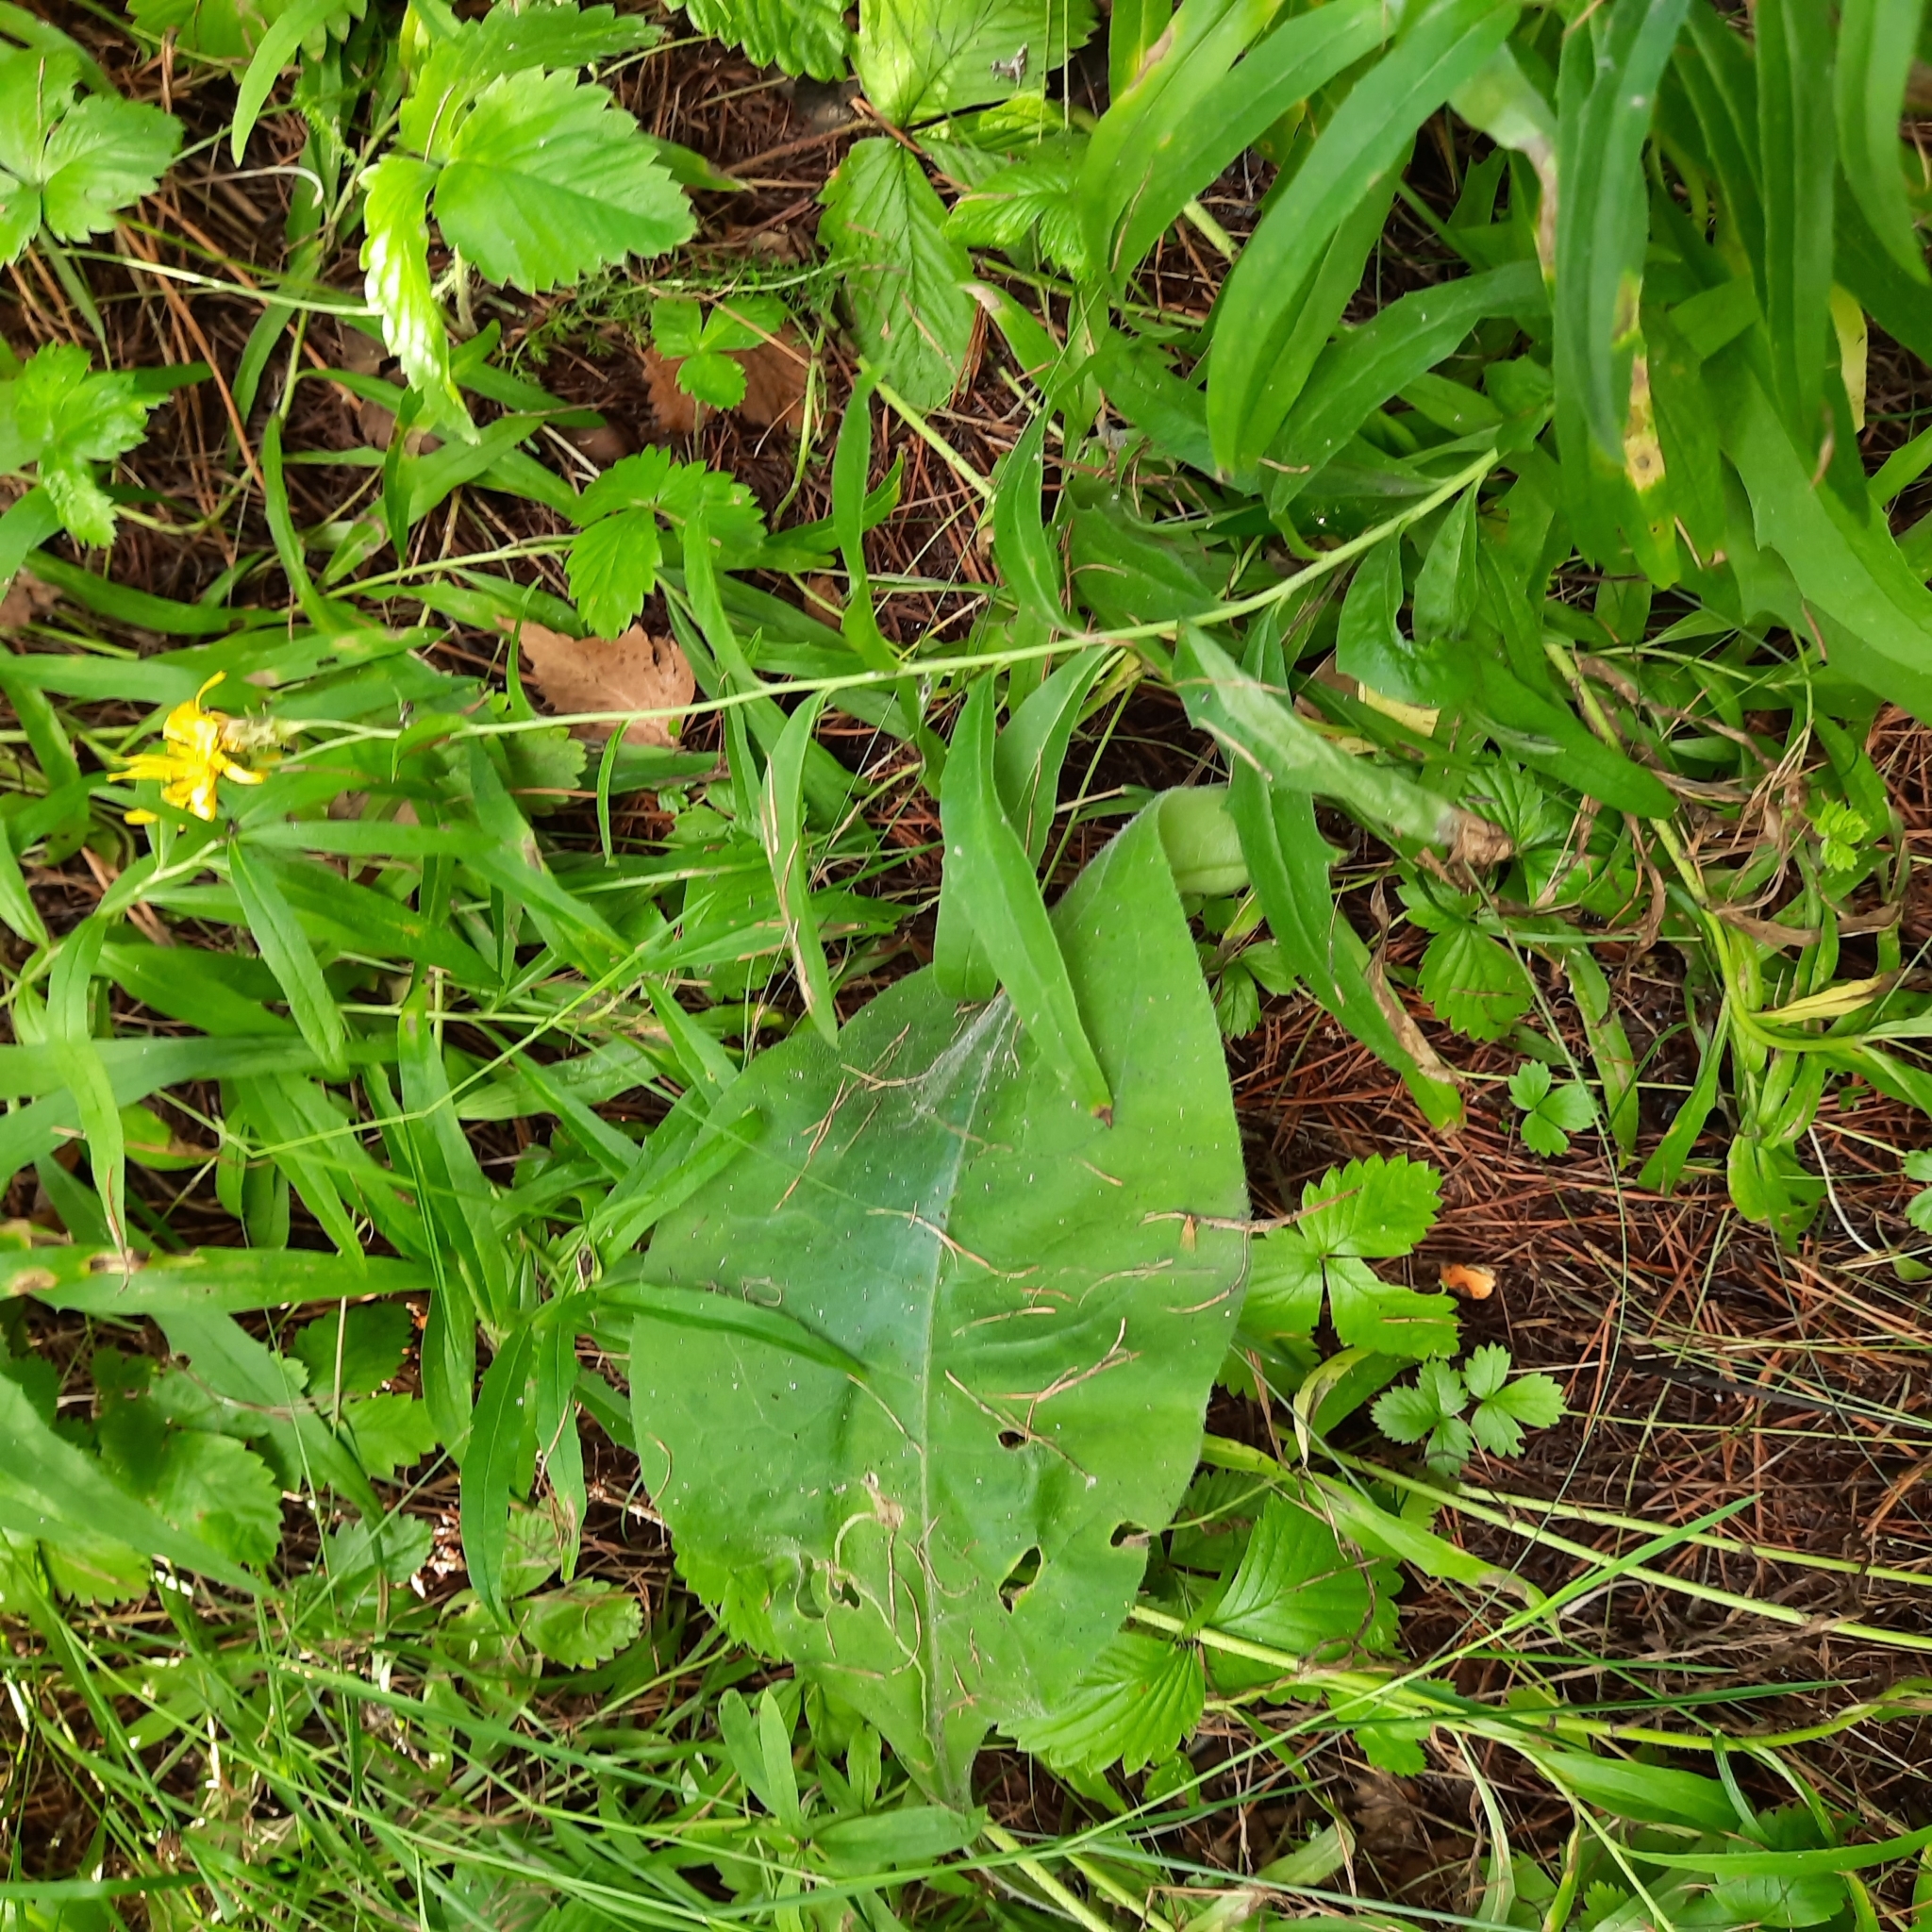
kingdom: Plantae
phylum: Tracheophyta
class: Magnoliopsida
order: Boraginales
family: Boraginaceae
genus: Pulmonaria
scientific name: Pulmonaria mollis
